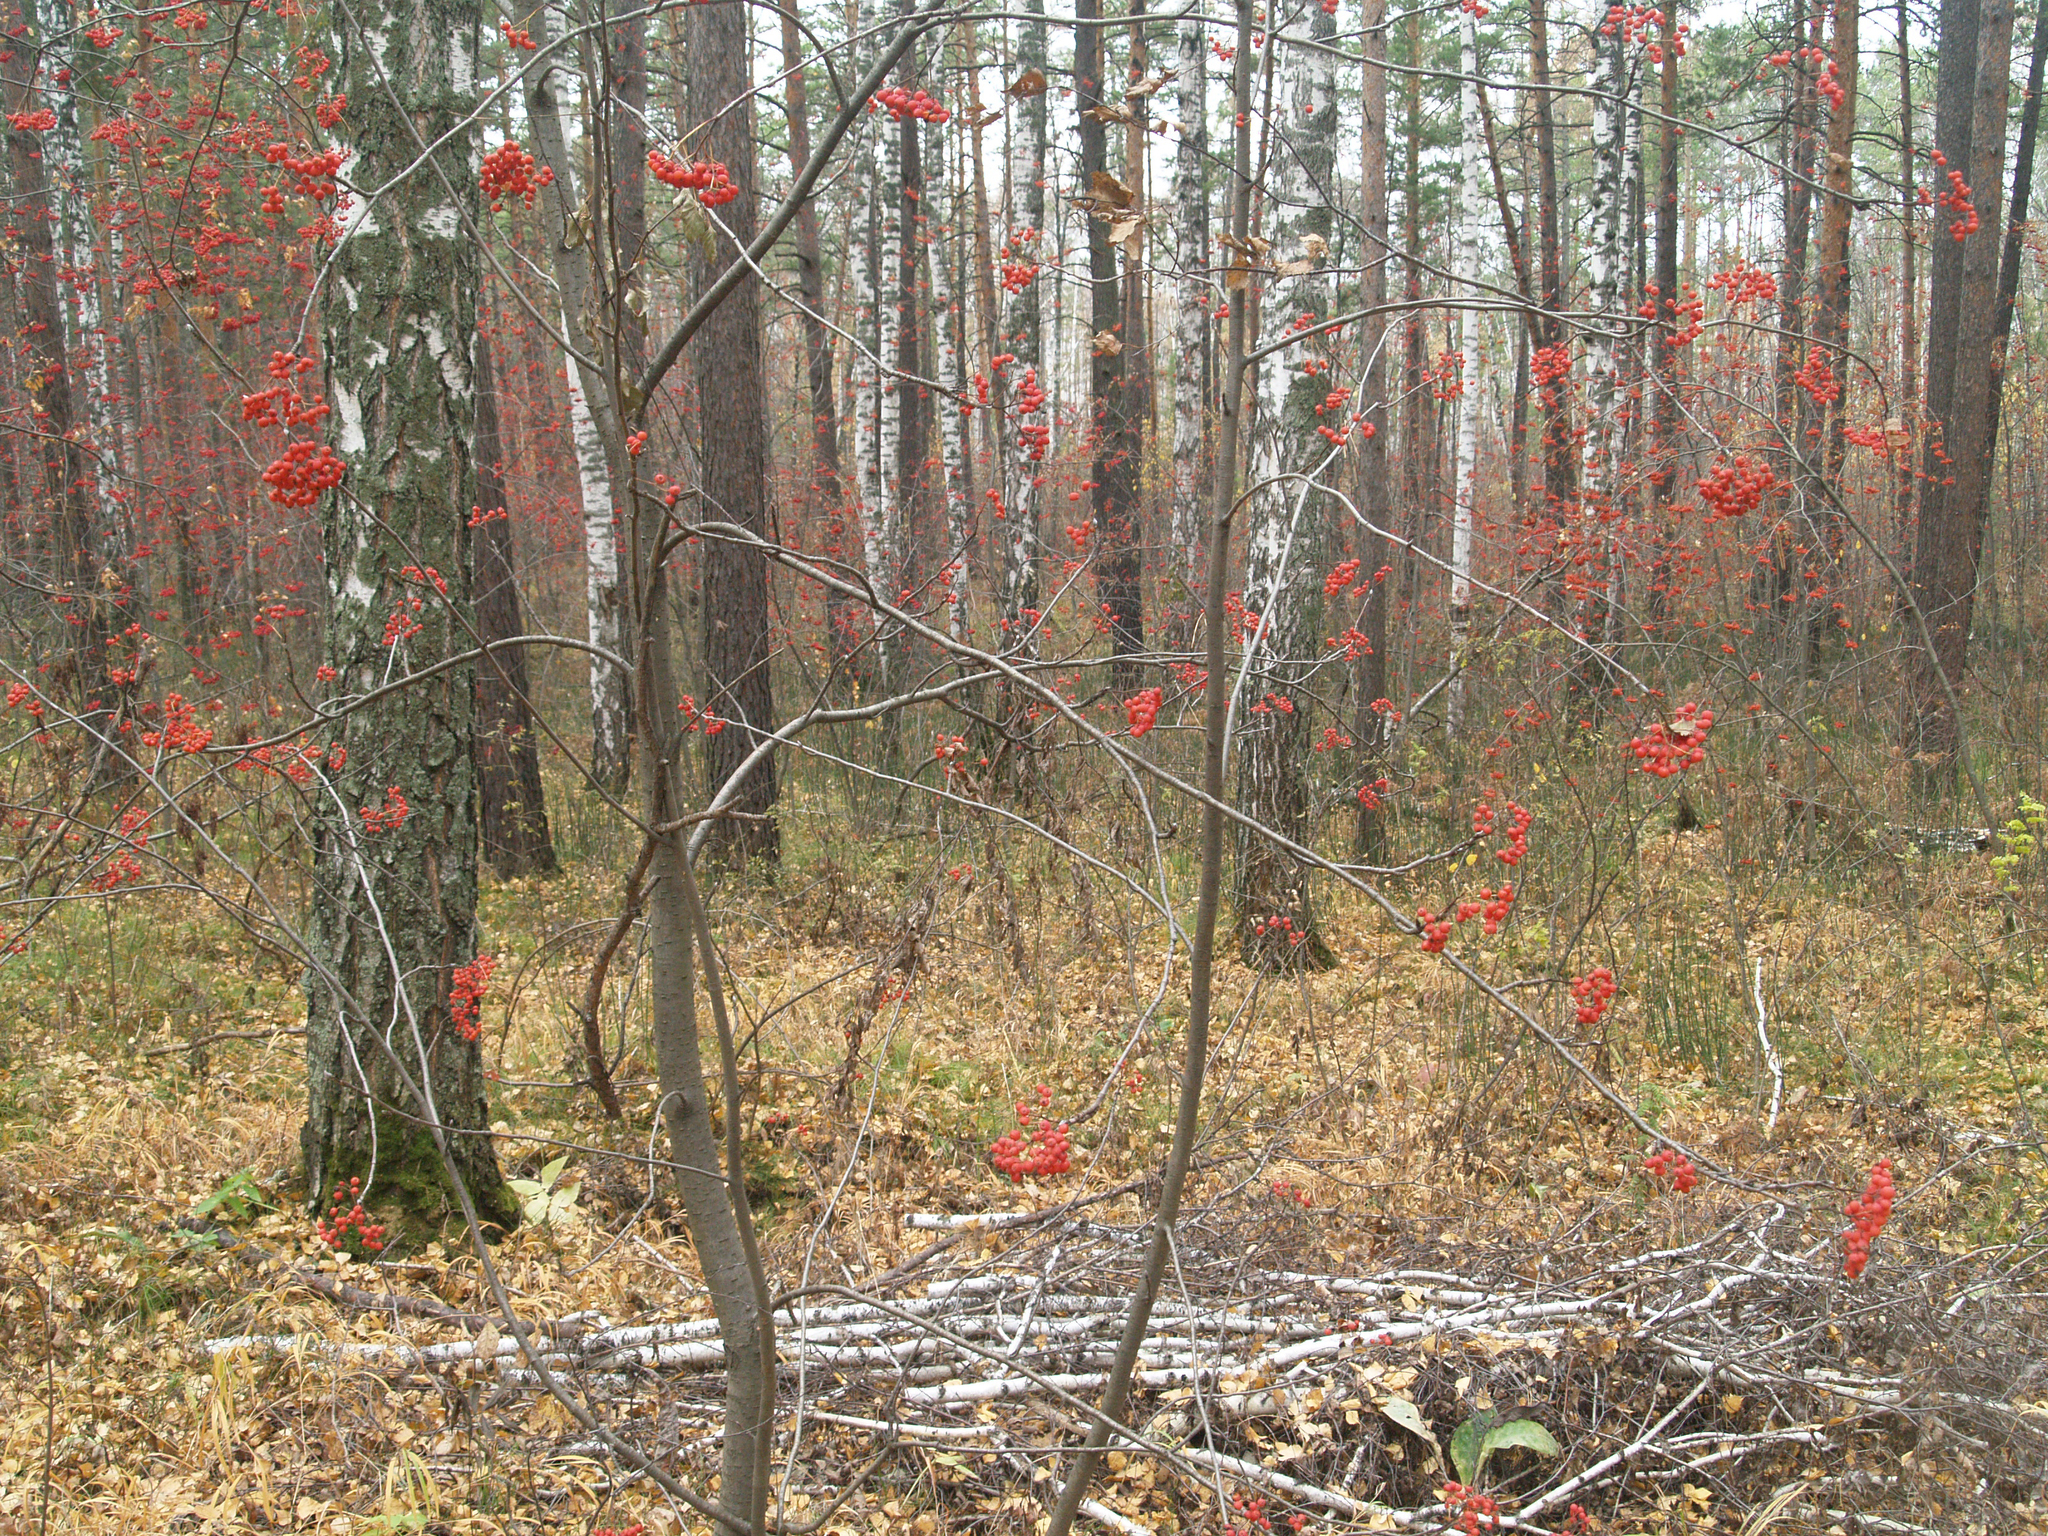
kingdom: Plantae
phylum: Tracheophyta
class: Magnoliopsida
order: Rosales
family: Rosaceae
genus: Sorbus
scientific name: Sorbus aucuparia
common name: Rowan
